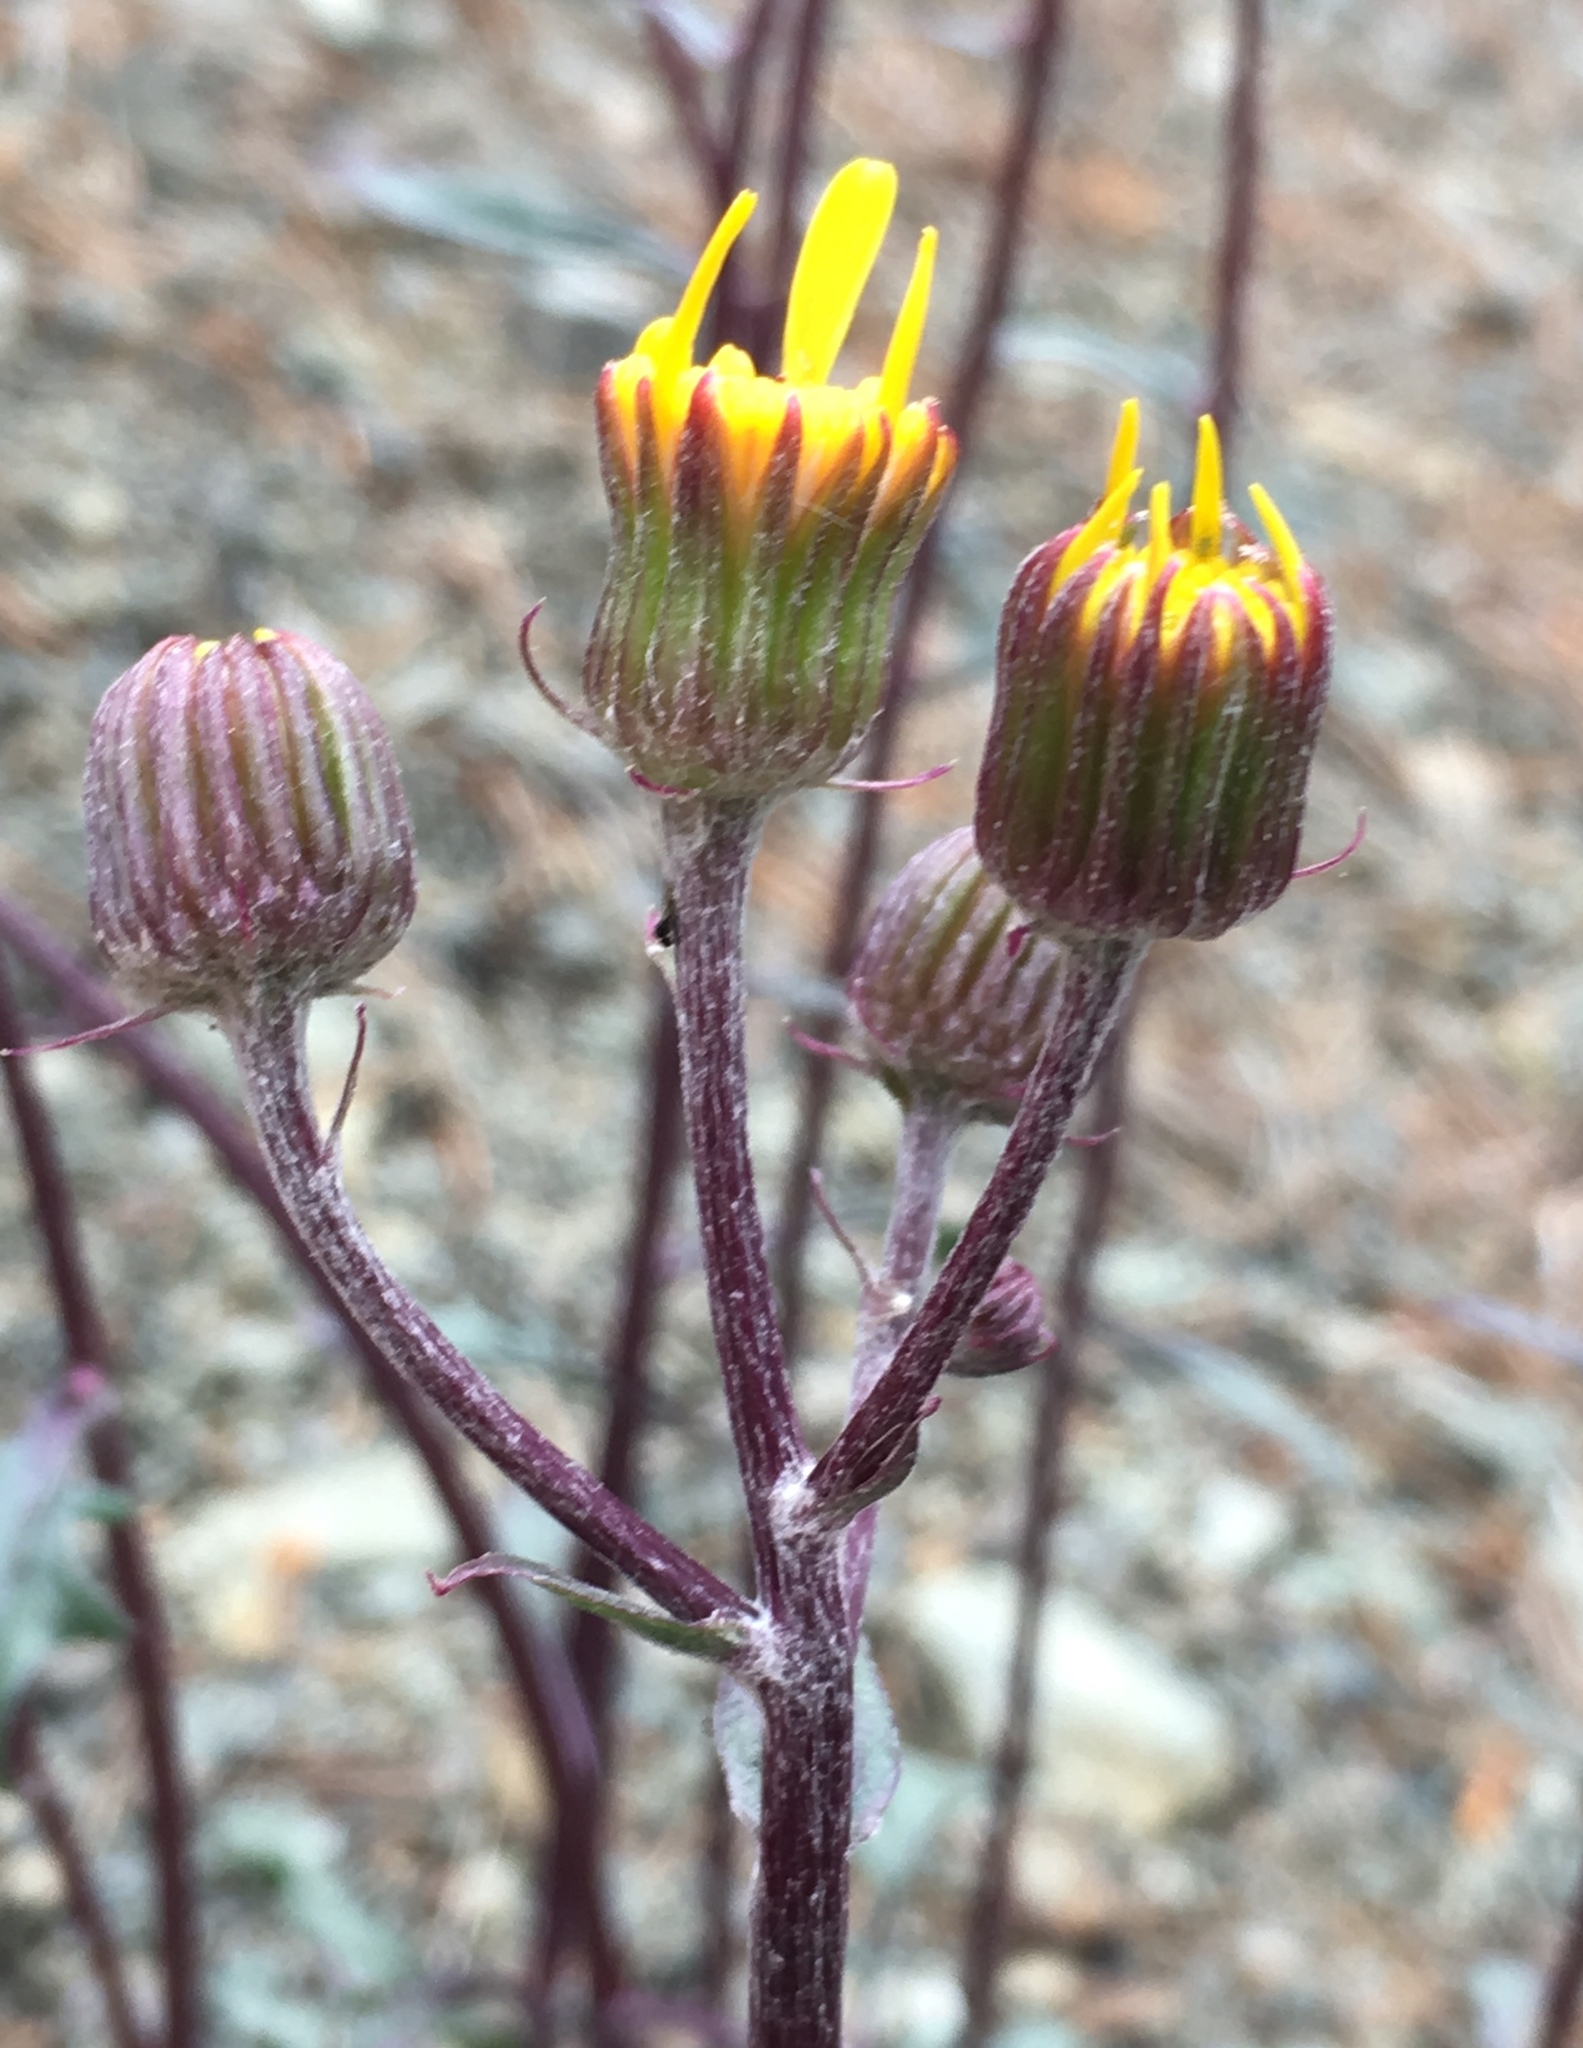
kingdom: Plantae
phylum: Tracheophyta
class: Magnoliopsida
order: Asterales
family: Asteraceae
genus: Packera
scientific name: Packera ionophylla
